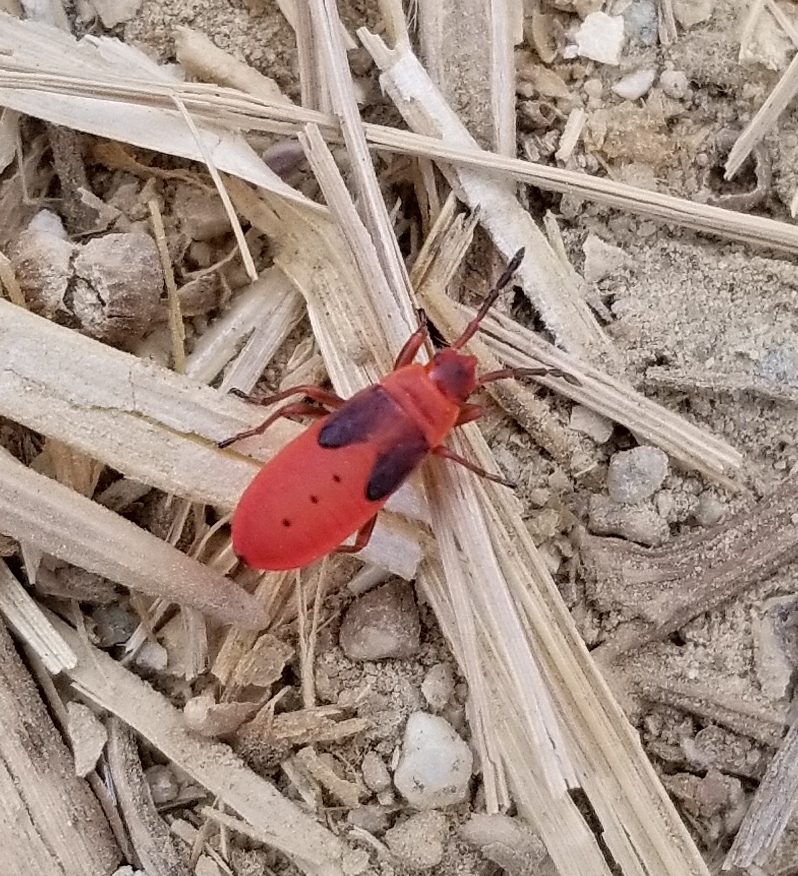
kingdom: Animalia
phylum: Arthropoda
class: Insecta
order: Hemiptera
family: Pyrrhocoridae
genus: Scantius
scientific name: Scantius aegyptius
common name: Red bug
